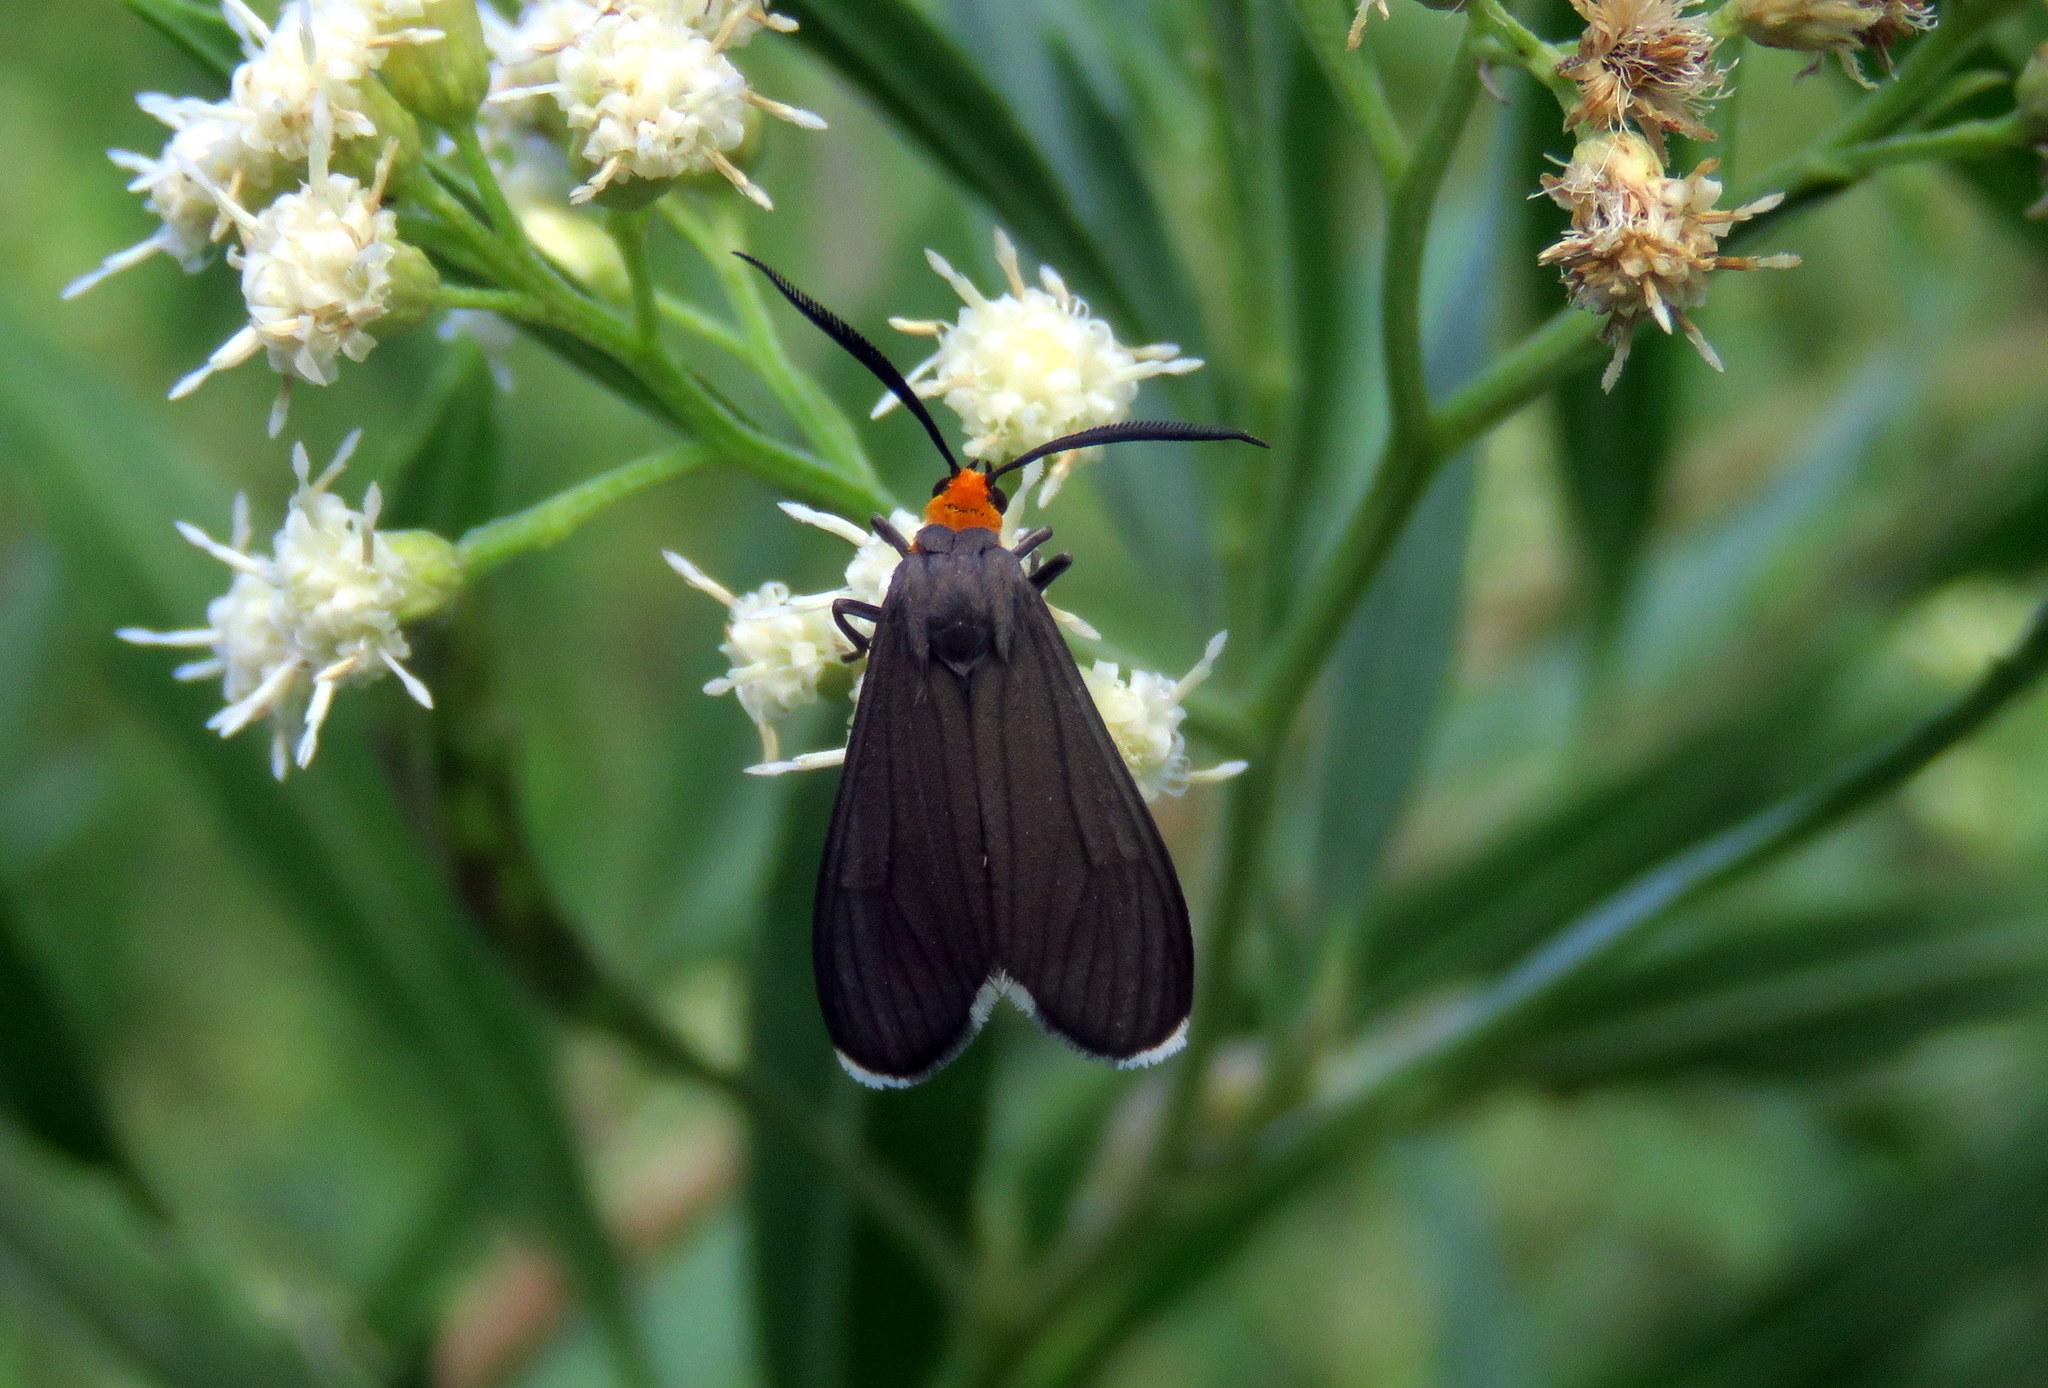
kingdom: Animalia
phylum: Arthropoda
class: Insecta
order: Lepidoptera
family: Erebidae
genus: Ctenucha
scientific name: Ctenucha rubriceps
